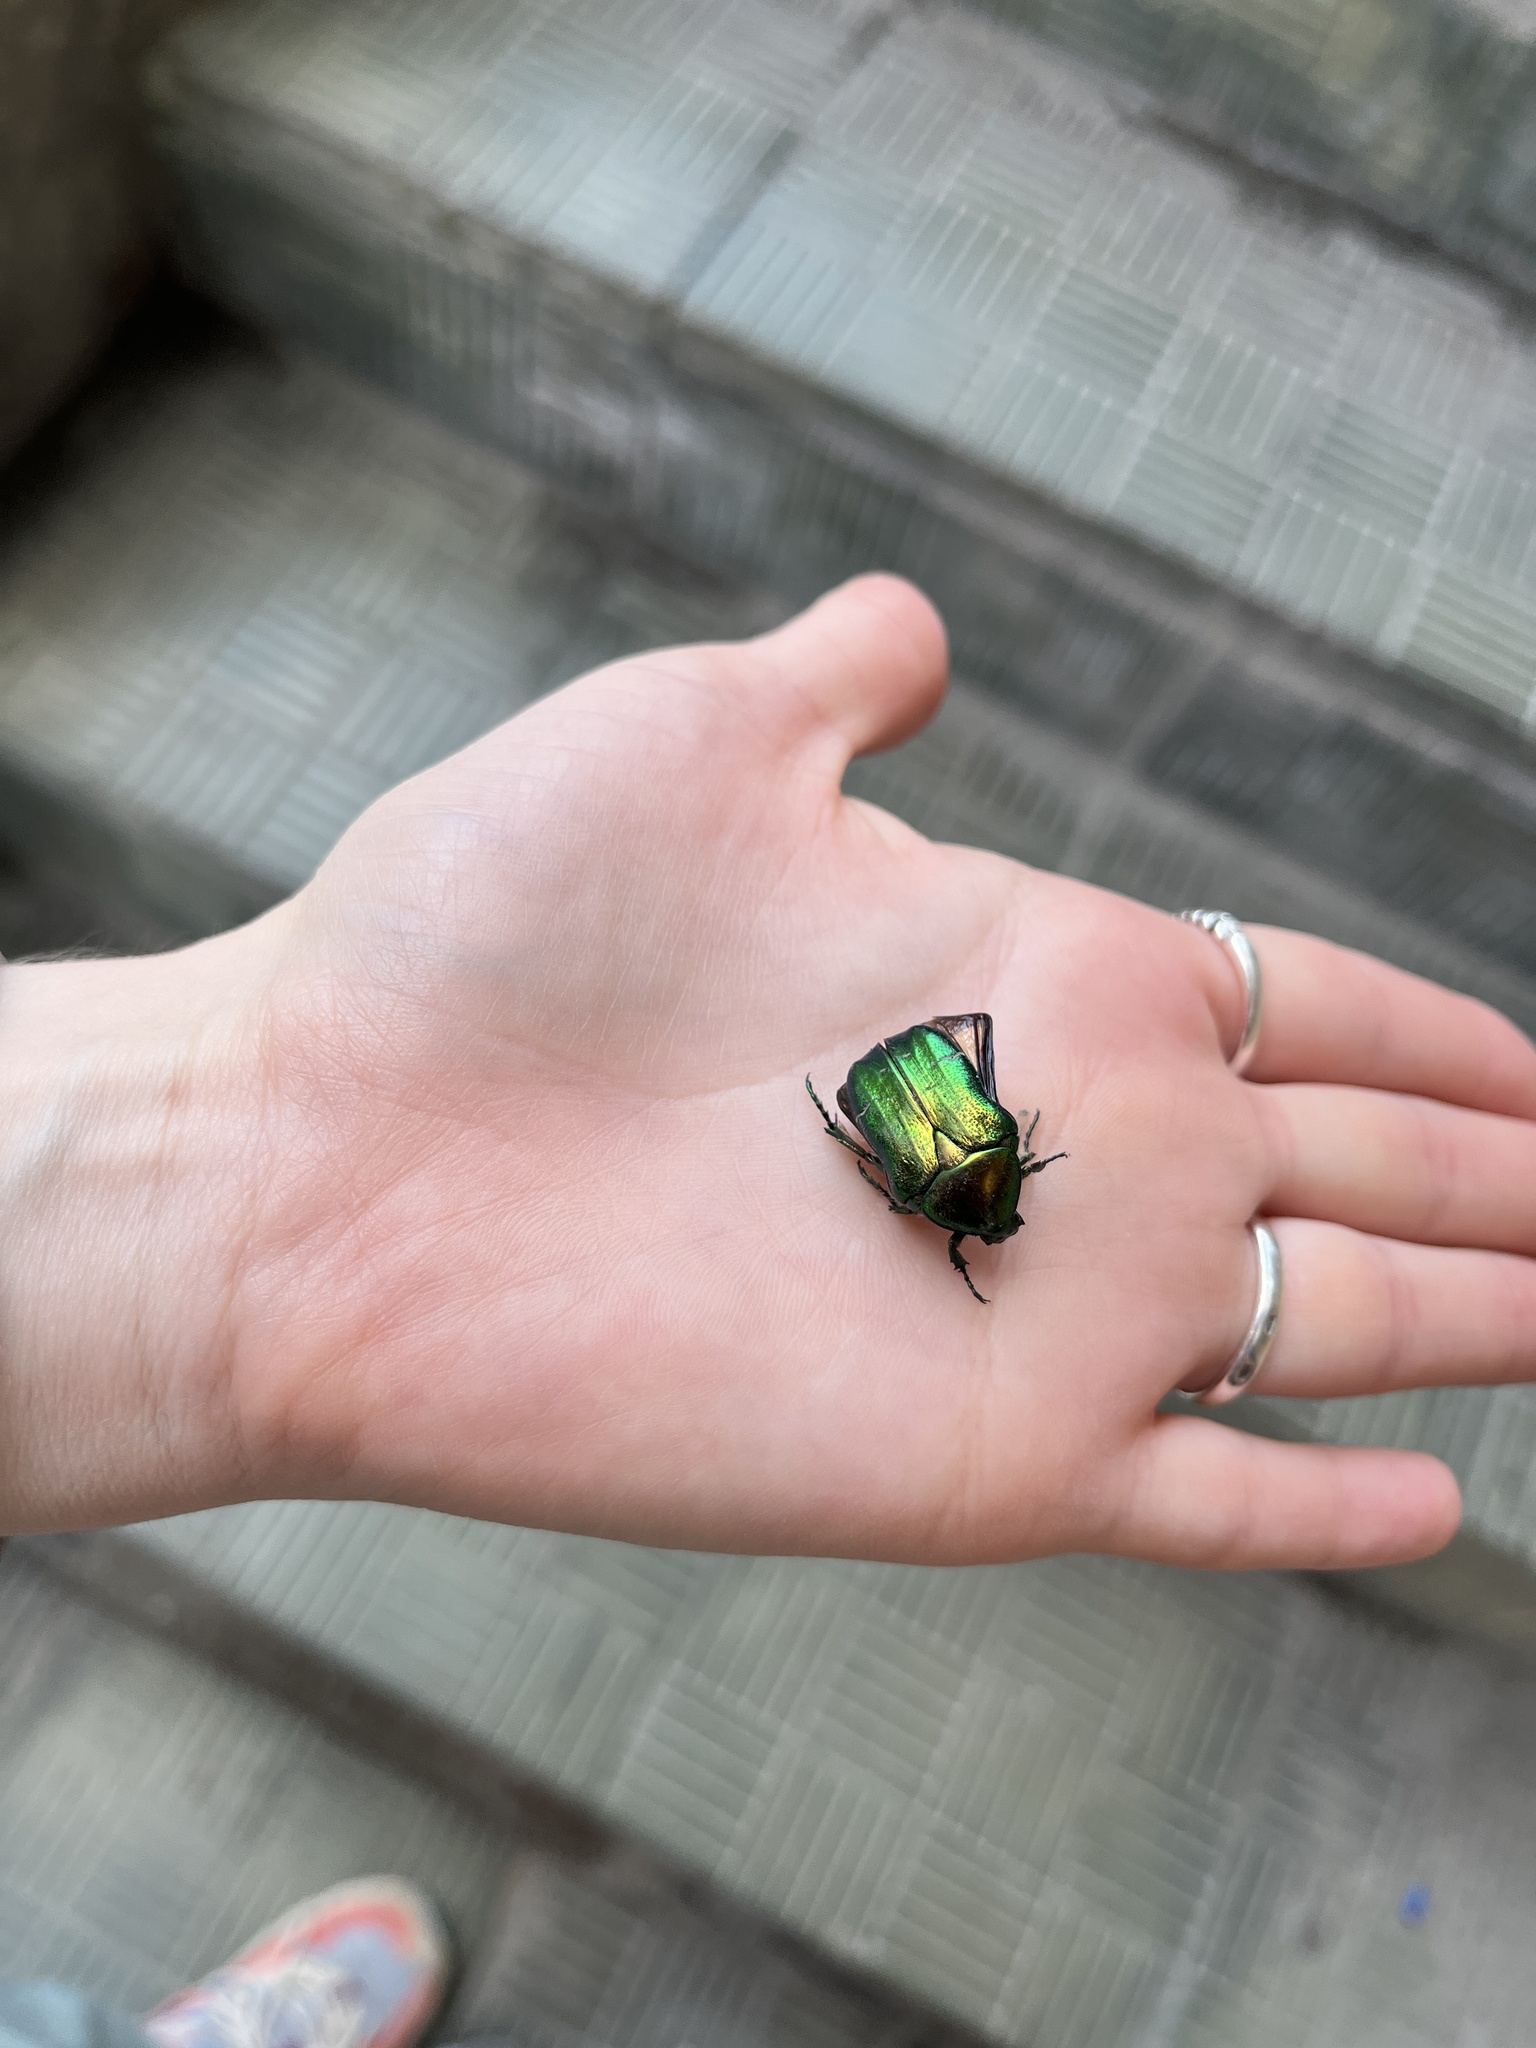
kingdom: Animalia
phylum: Arthropoda
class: Insecta
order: Coleoptera
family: Scarabaeidae
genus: Cetonia
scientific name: Cetonia aurata
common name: Rose chafer
